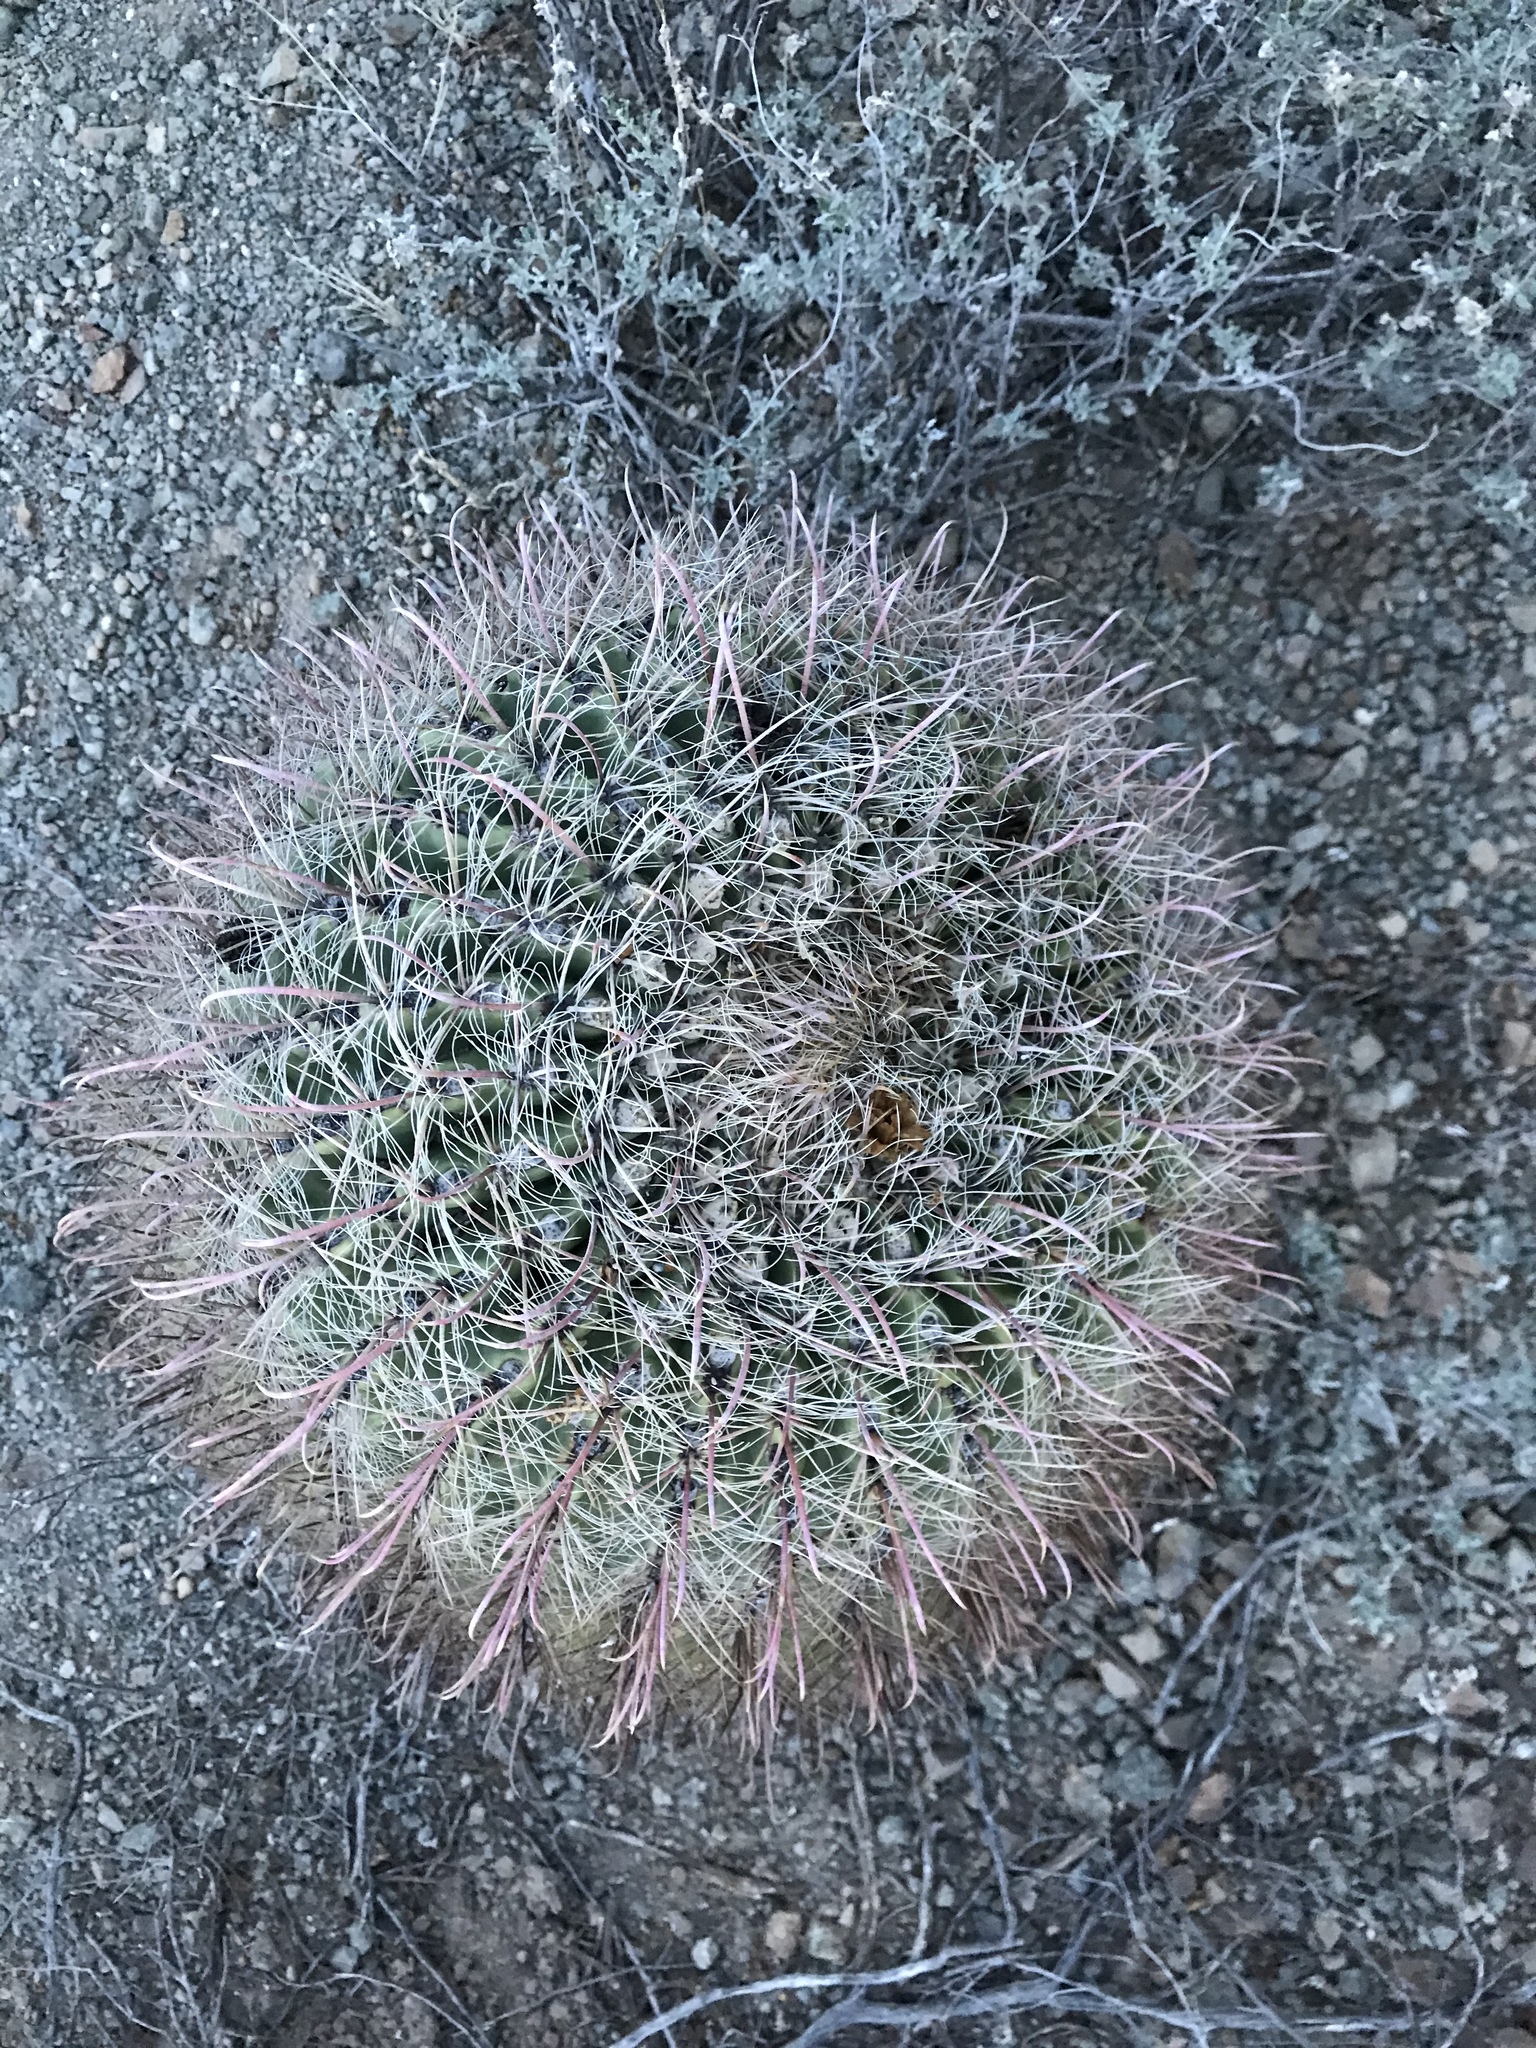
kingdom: Plantae
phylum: Tracheophyta
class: Magnoliopsida
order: Caryophyllales
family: Cactaceae
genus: Ferocactus
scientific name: Ferocactus wislizeni
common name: Candy barrel cactus
